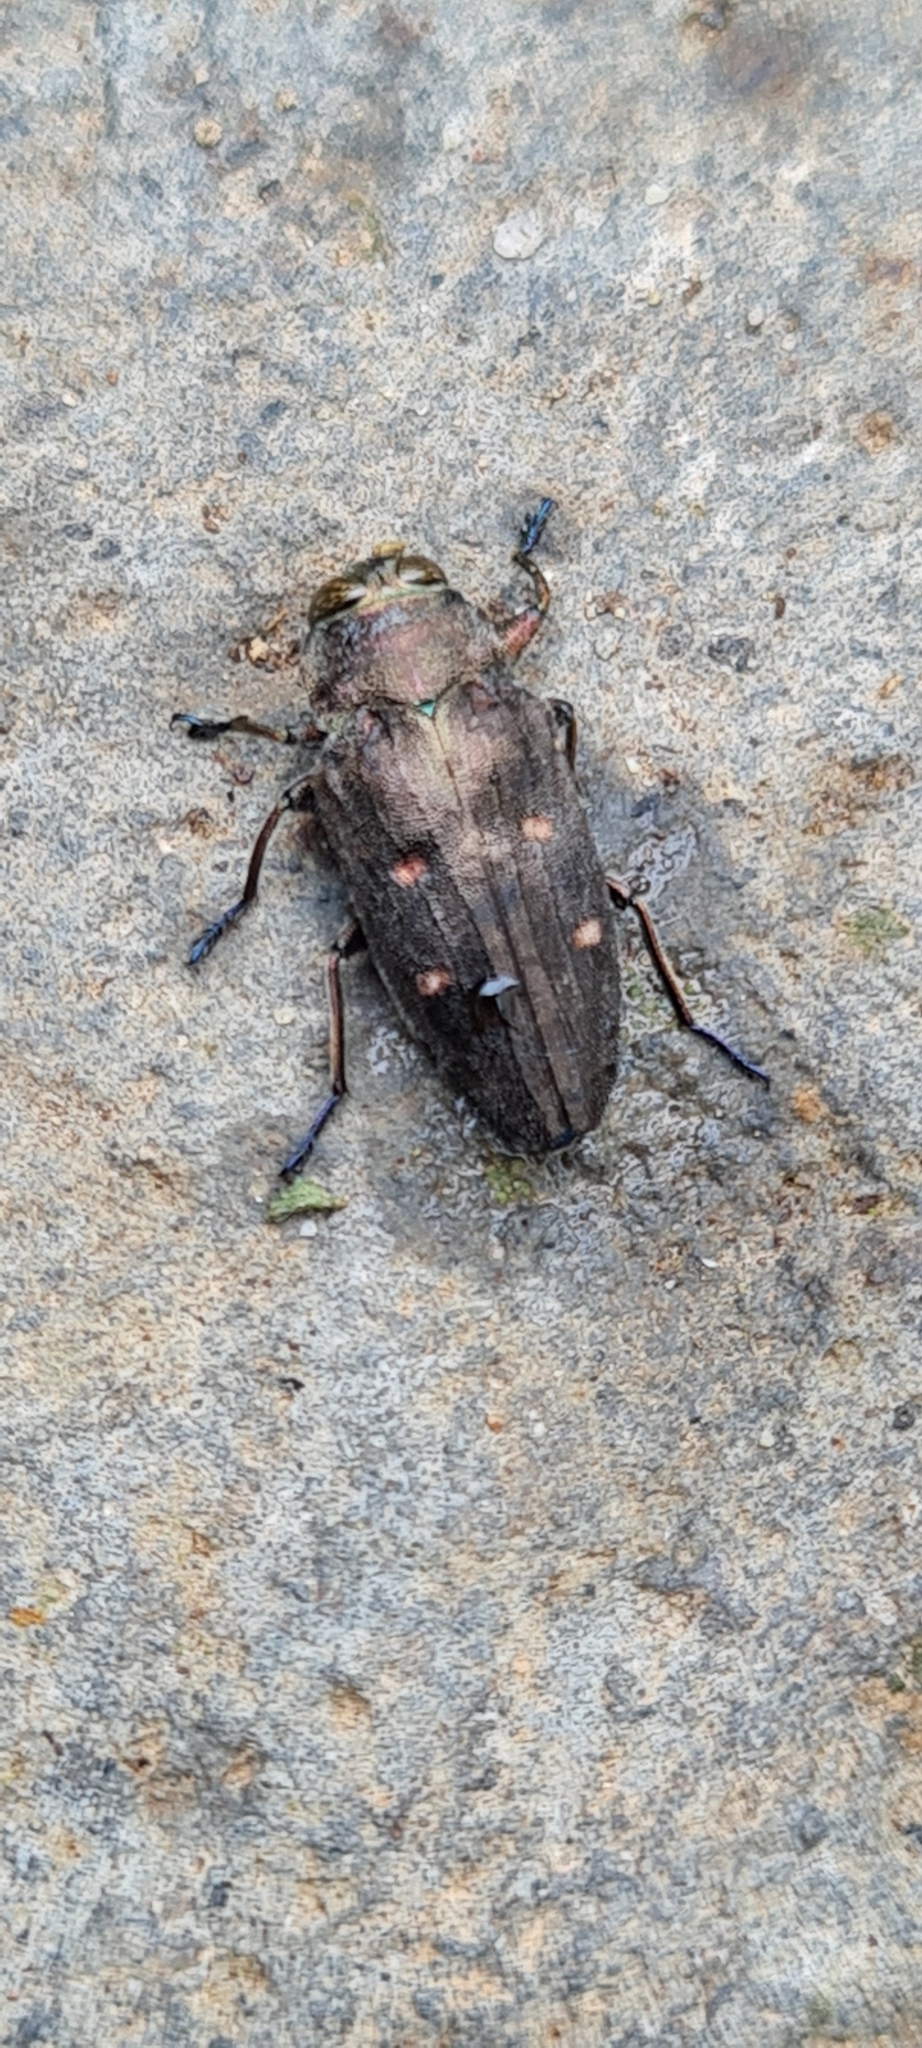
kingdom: Animalia
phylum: Arthropoda
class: Insecta
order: Coleoptera
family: Buprestidae
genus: Chrysobothris
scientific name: Chrysobothris affinis
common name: Beetle
